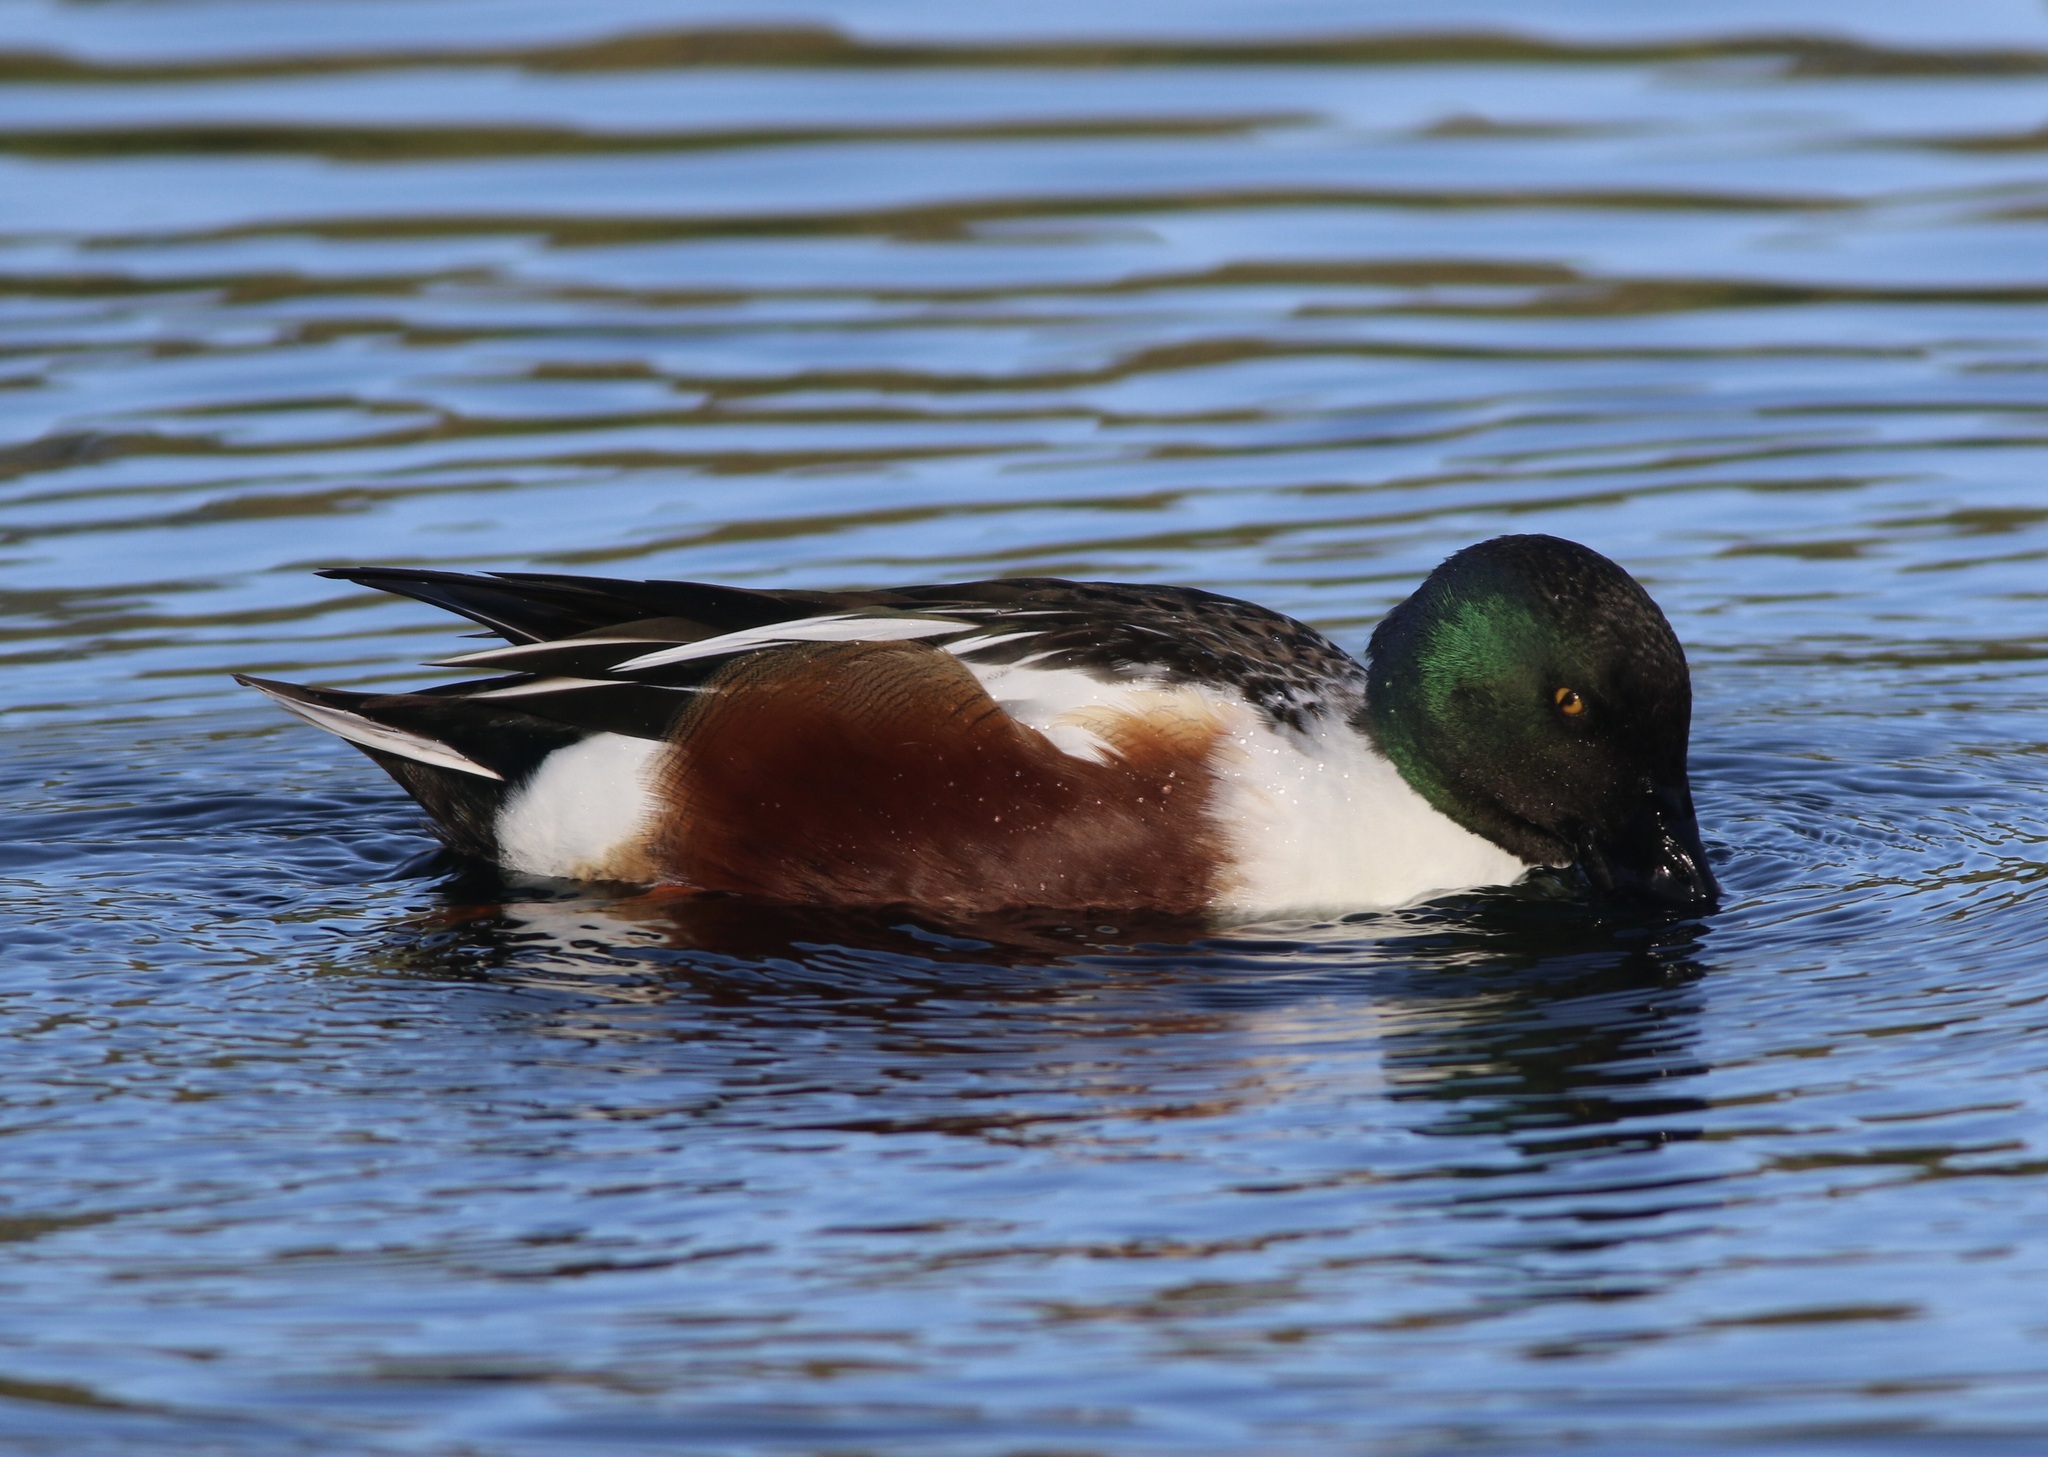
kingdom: Animalia
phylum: Chordata
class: Aves
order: Anseriformes
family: Anatidae
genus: Spatula
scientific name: Spatula clypeata
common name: Northern shoveler
